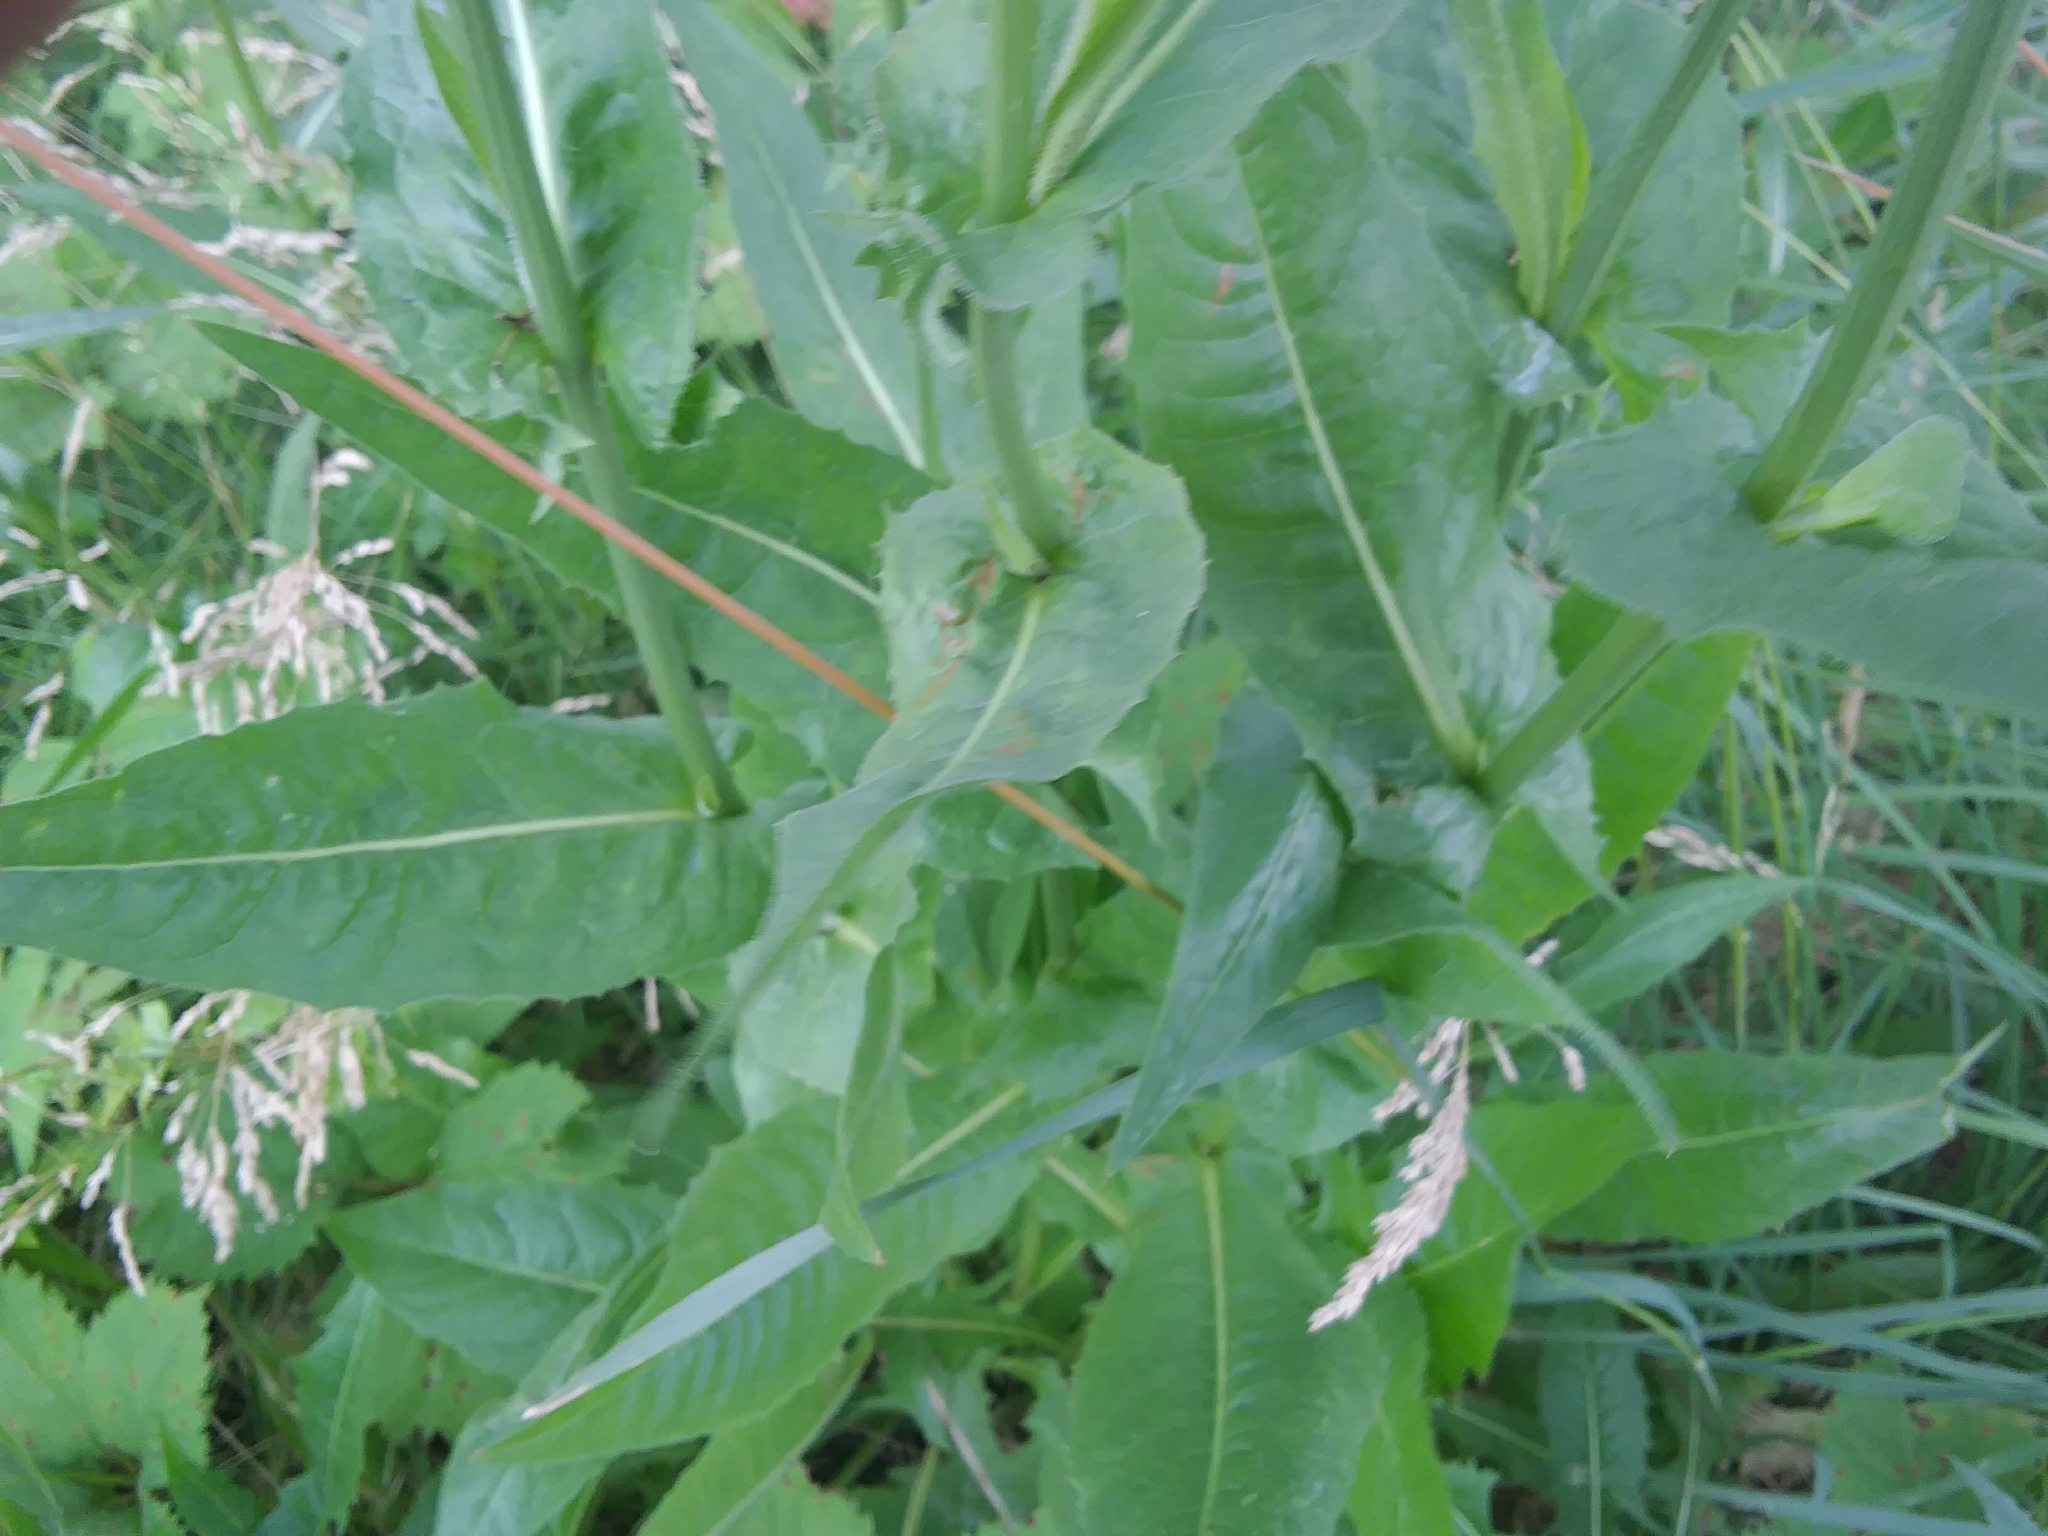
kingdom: Plantae
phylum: Tracheophyta
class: Magnoliopsida
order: Asterales
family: Asteraceae
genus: Cichorium
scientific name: Cichorium intybus
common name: Chicory
